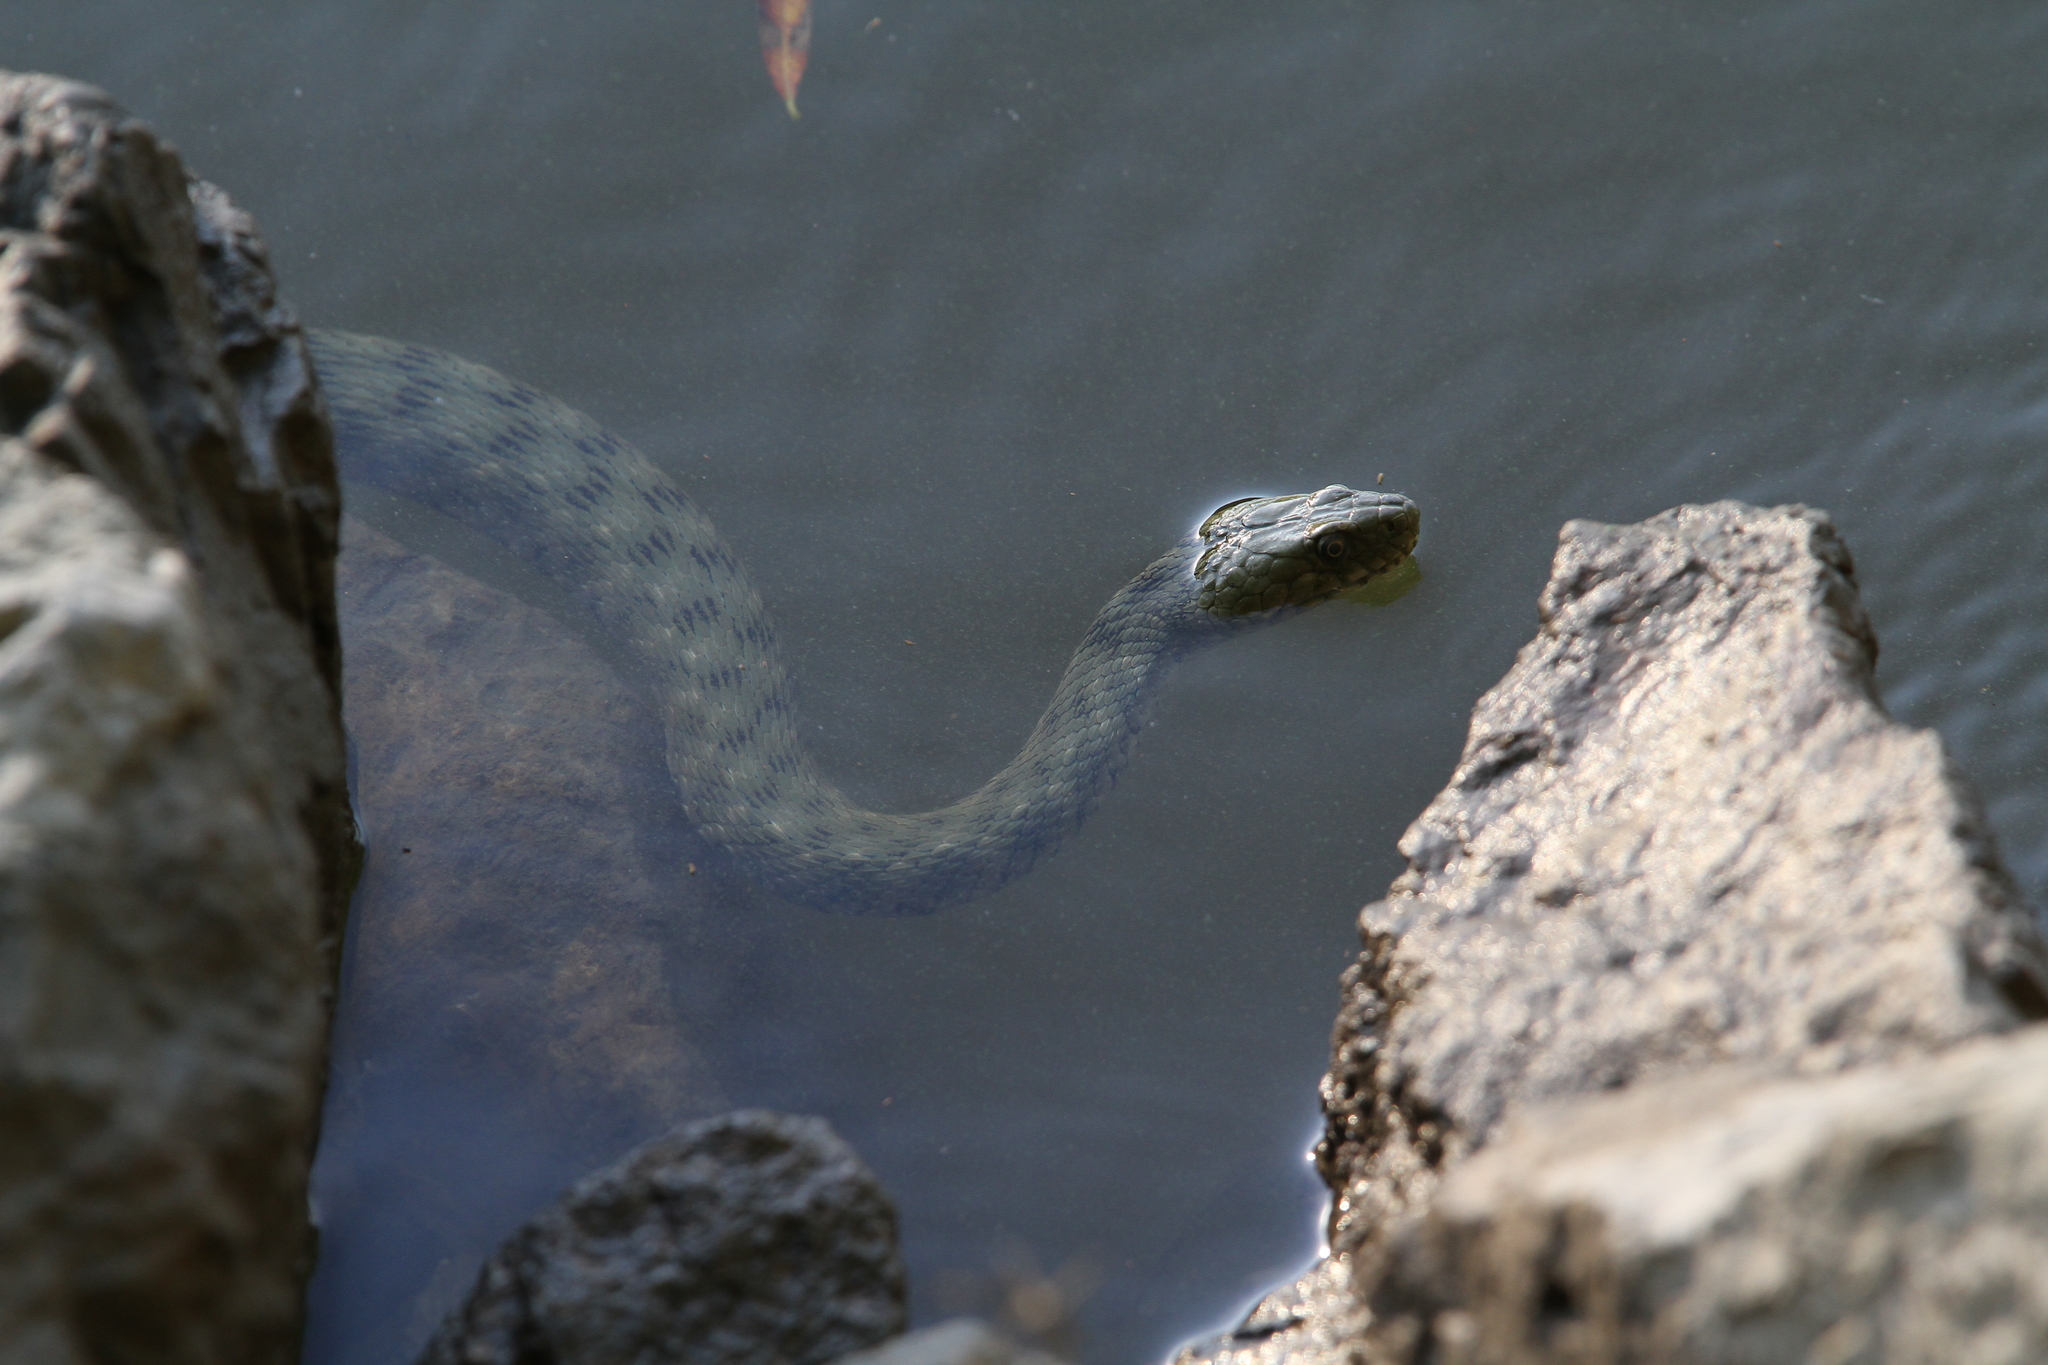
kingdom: Animalia
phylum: Chordata
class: Squamata
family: Colubridae
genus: Natrix
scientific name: Natrix tessellata
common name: Dice snake
